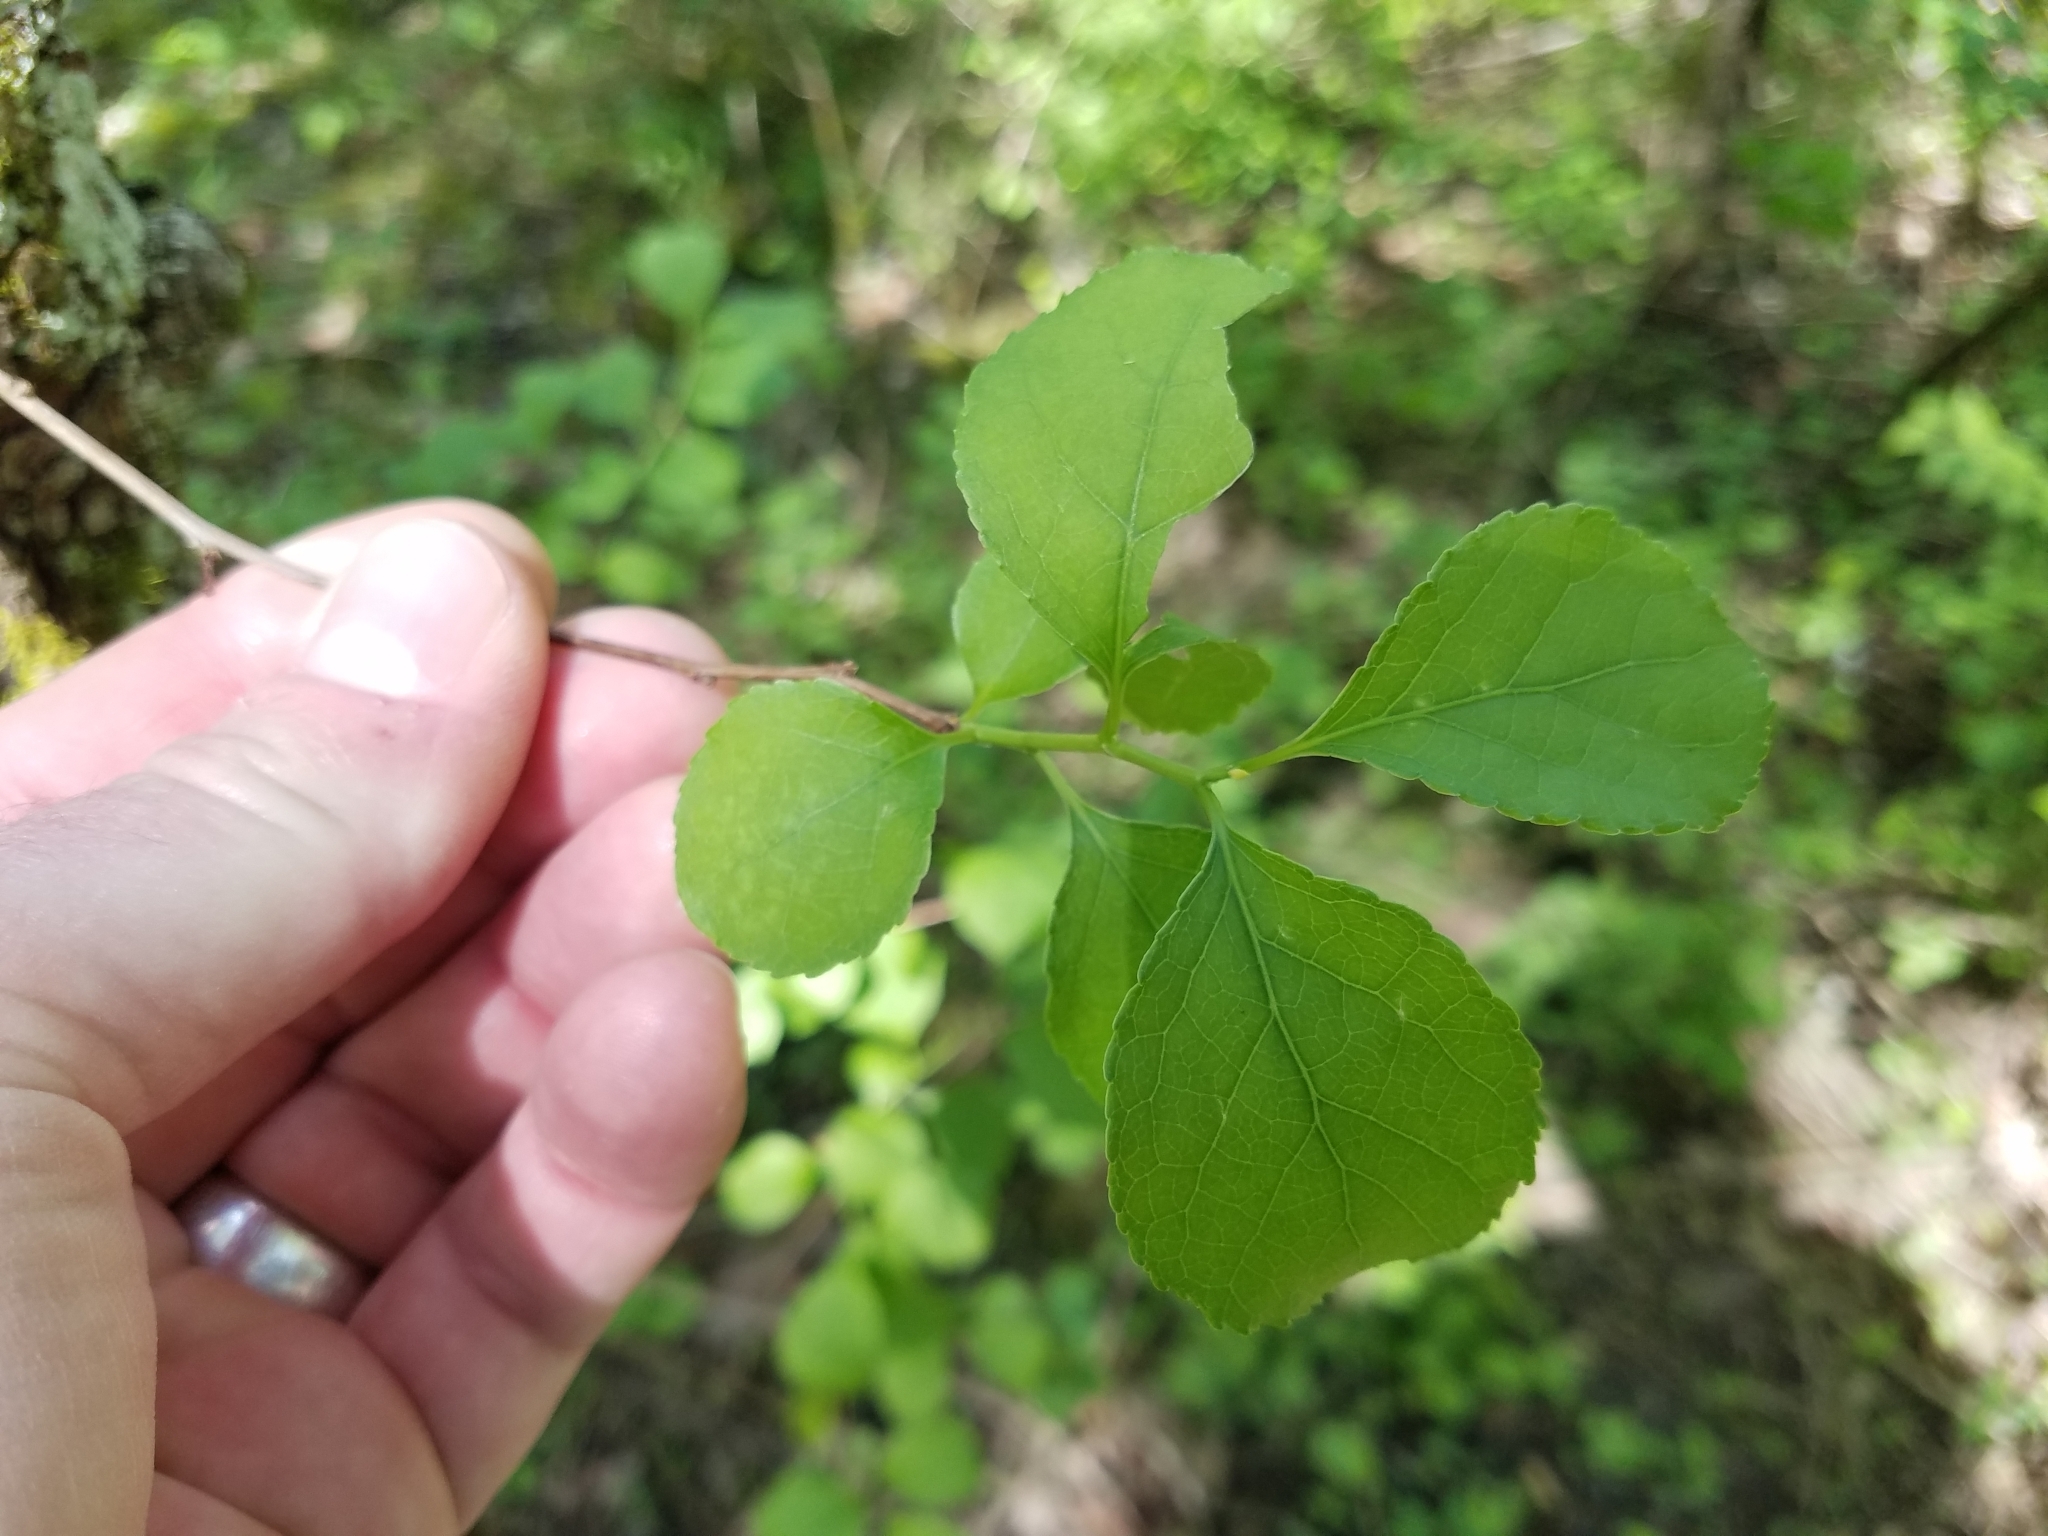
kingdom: Plantae
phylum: Tracheophyta
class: Magnoliopsida
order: Celastrales
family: Celastraceae
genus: Celastrus
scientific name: Celastrus orbiculatus
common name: Oriental bittersweet
